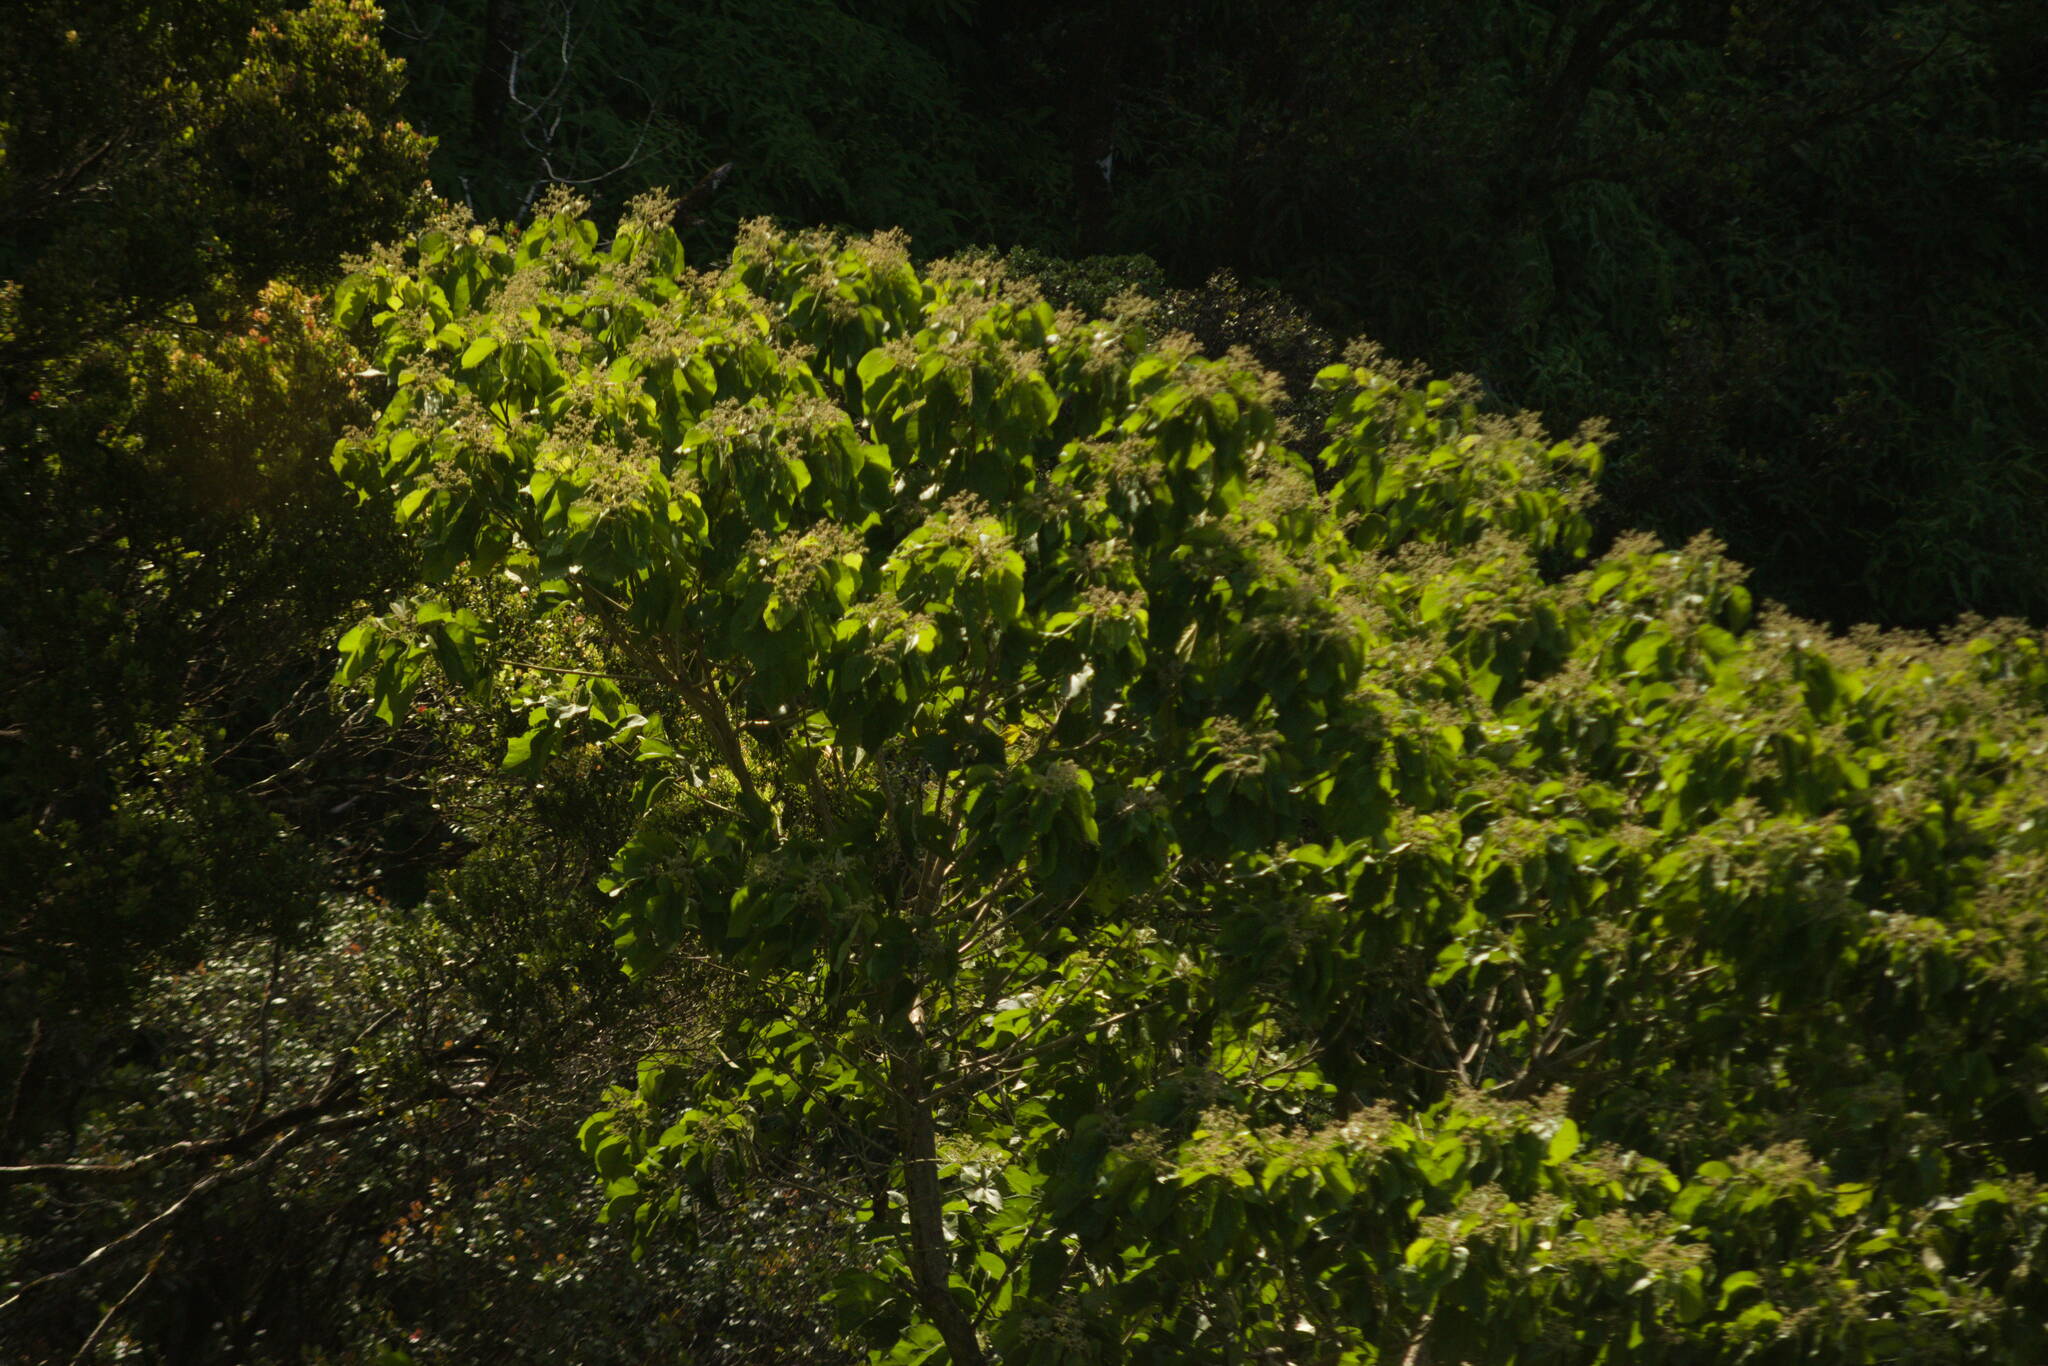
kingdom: Plantae
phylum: Tracheophyta
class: Magnoliopsida
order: Malvales
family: Malvaceae
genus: Heliocarpus
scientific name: Heliocarpus americanus
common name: White moho
